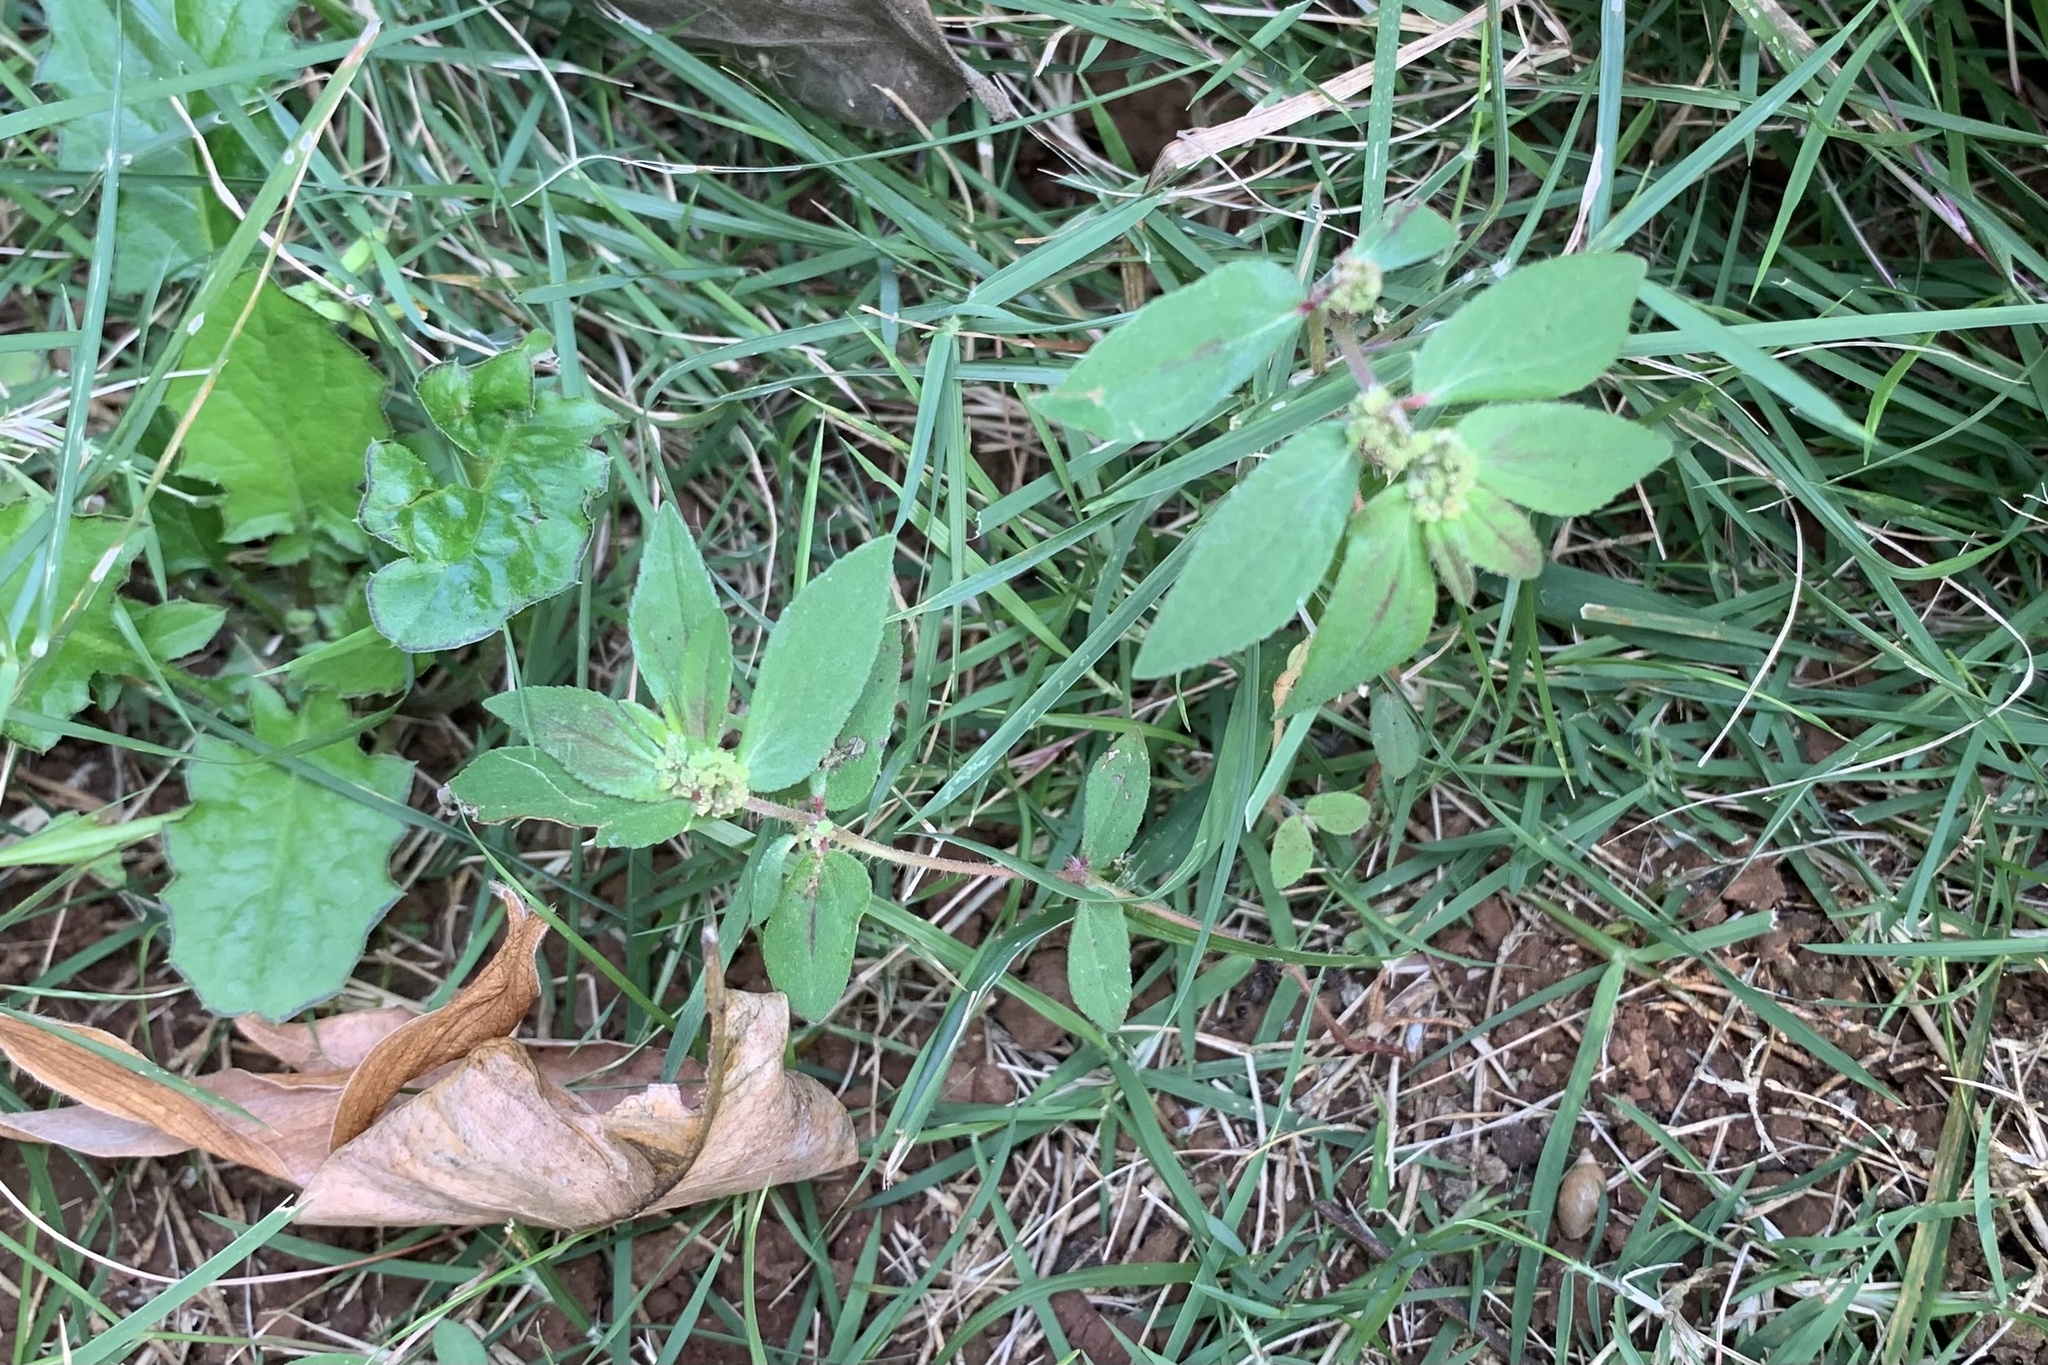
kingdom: Plantae
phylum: Tracheophyta
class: Magnoliopsida
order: Malpighiales
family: Euphorbiaceae
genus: Euphorbia
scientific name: Euphorbia hirta
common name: Pillpod sandmat
